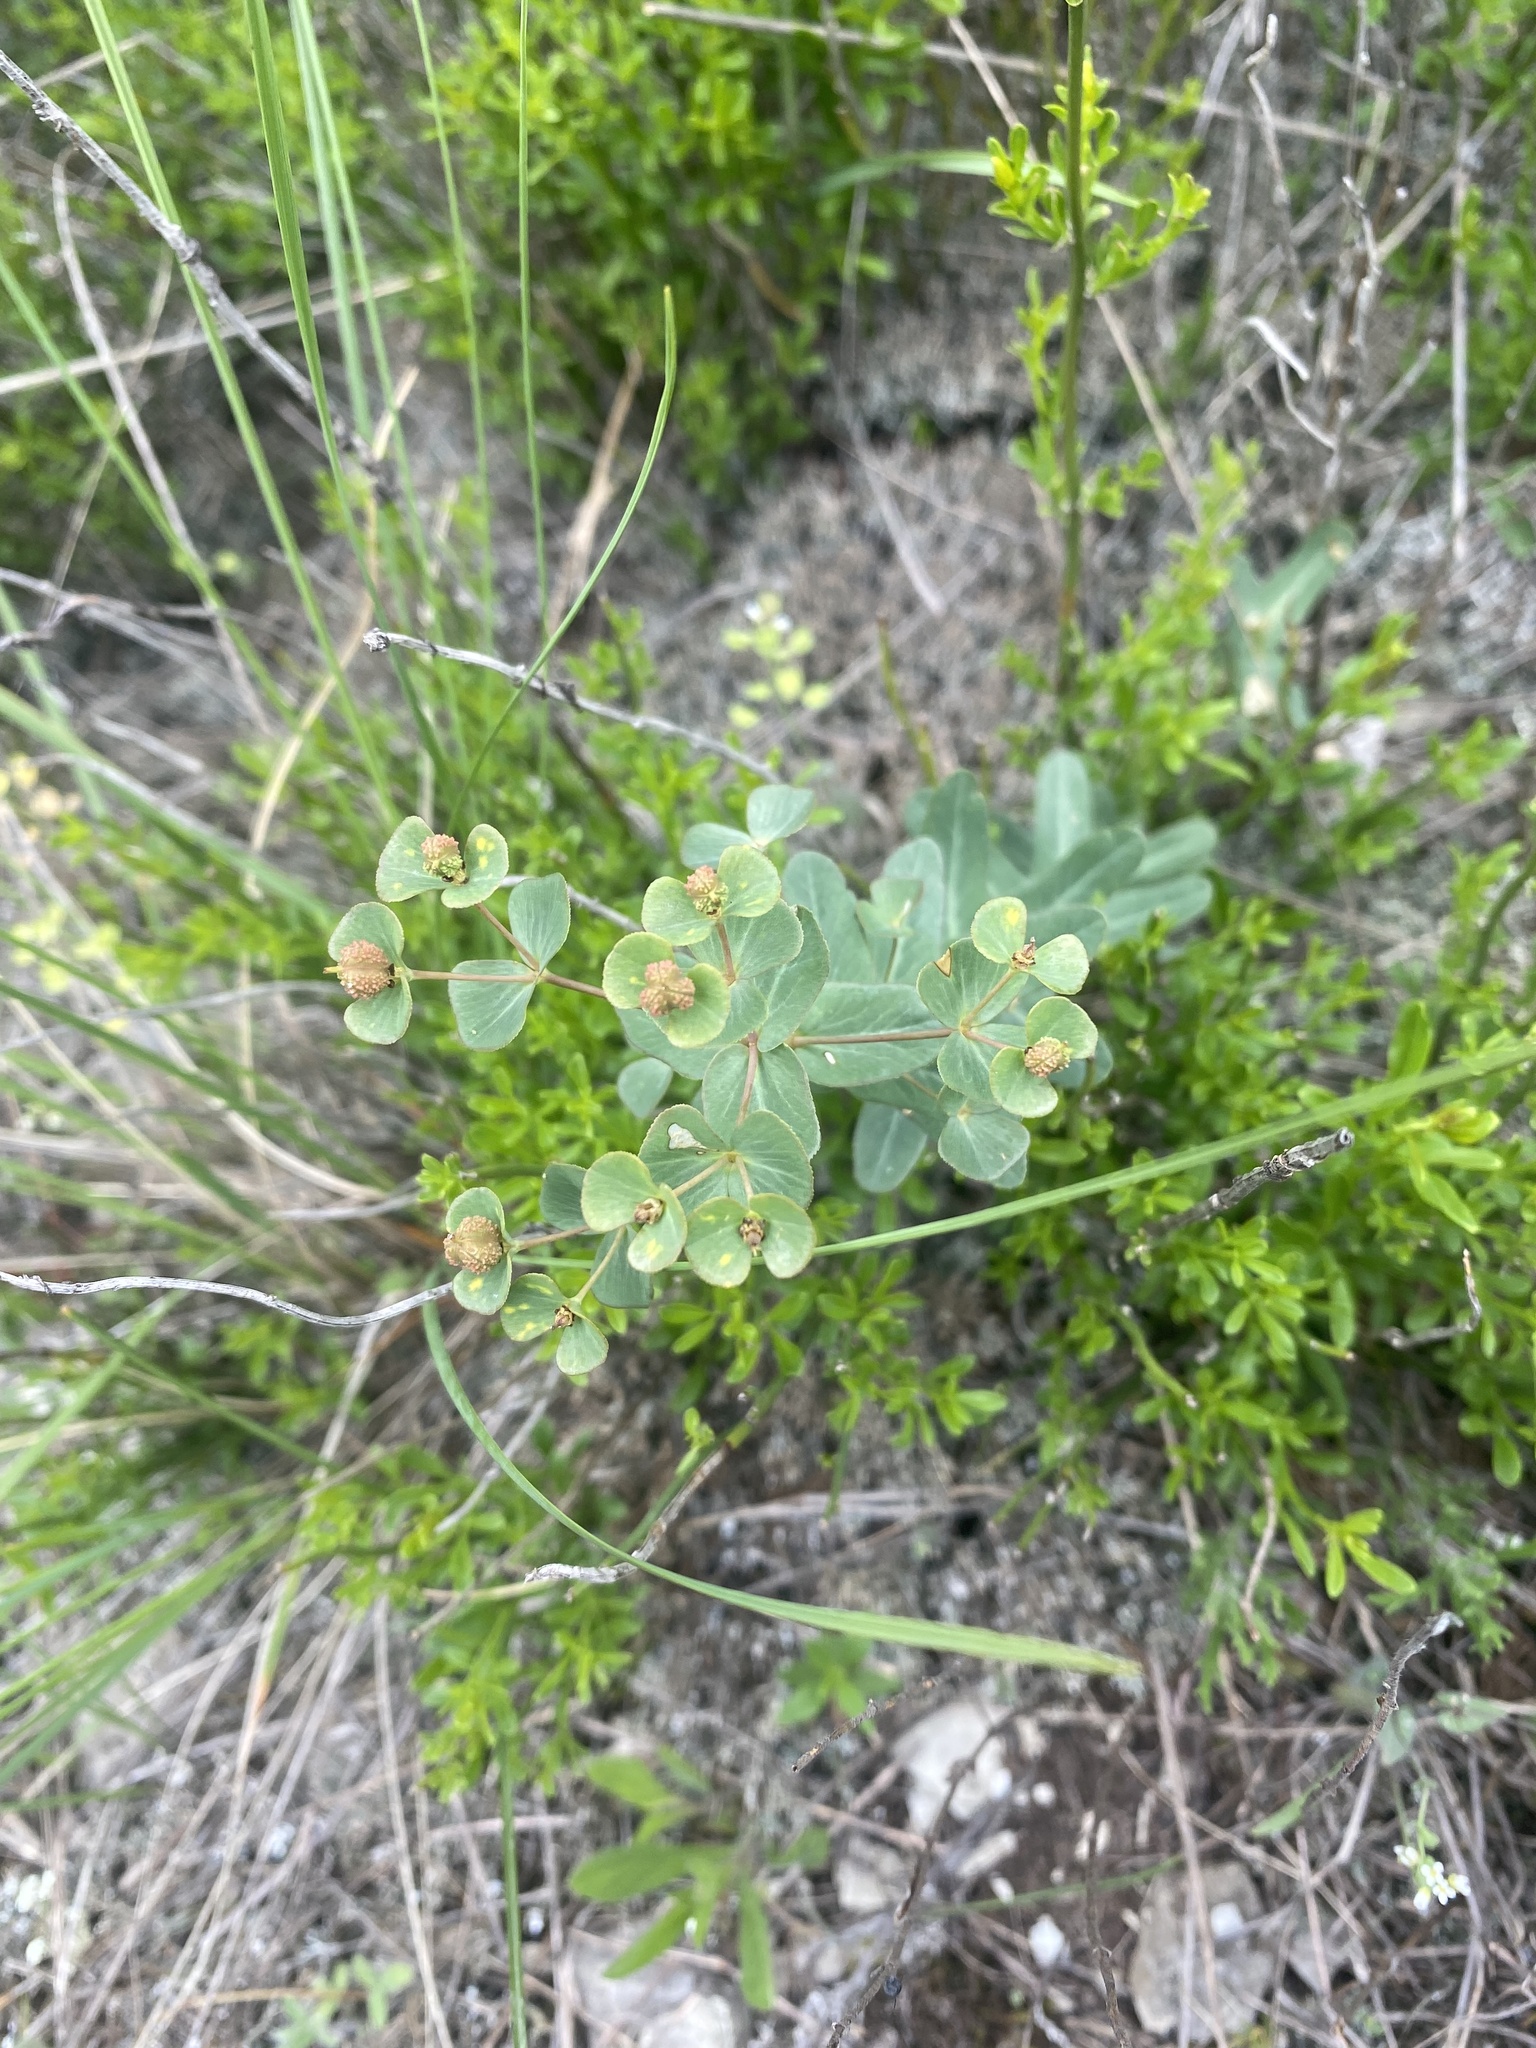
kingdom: Plantae
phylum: Tracheophyta
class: Magnoliopsida
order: Malpighiales
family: Euphorbiaceae
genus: Euphorbia
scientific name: Euphorbia condylocarpa
